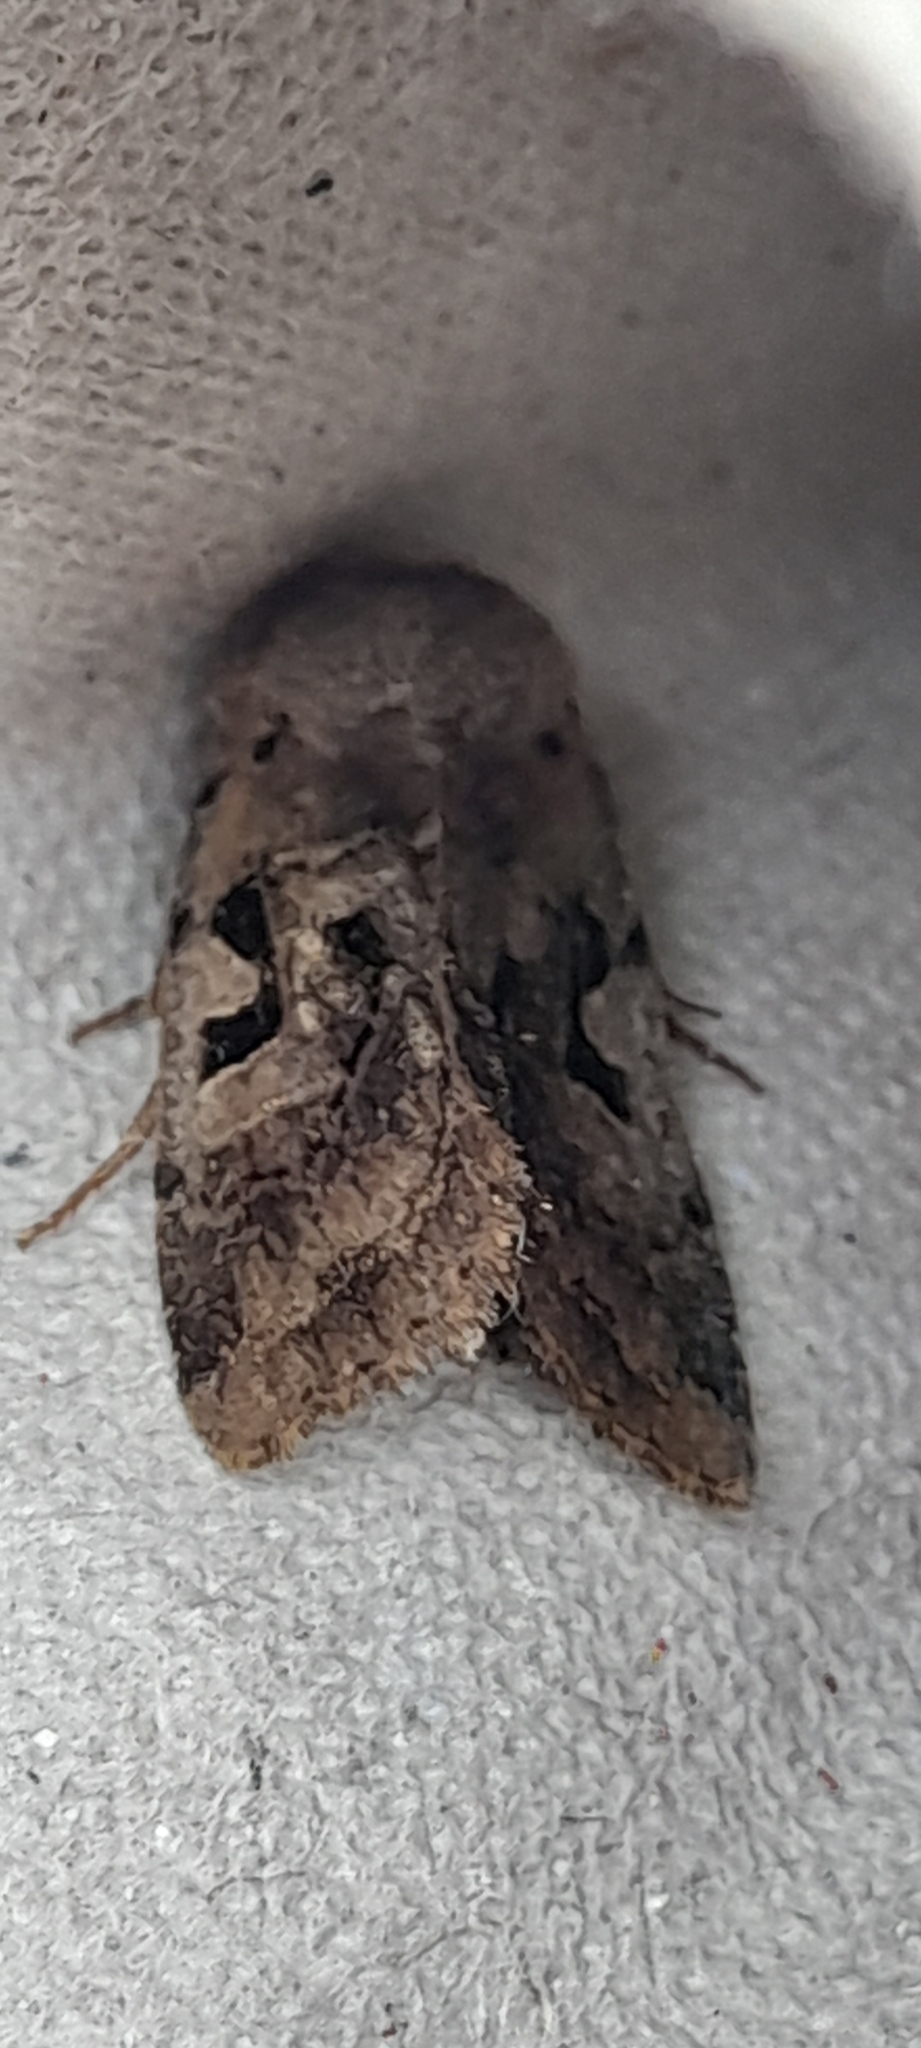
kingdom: Animalia
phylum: Arthropoda
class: Insecta
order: Lepidoptera
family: Noctuidae
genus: Orthosia
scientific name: Orthosia gothica
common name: Hebrew character
